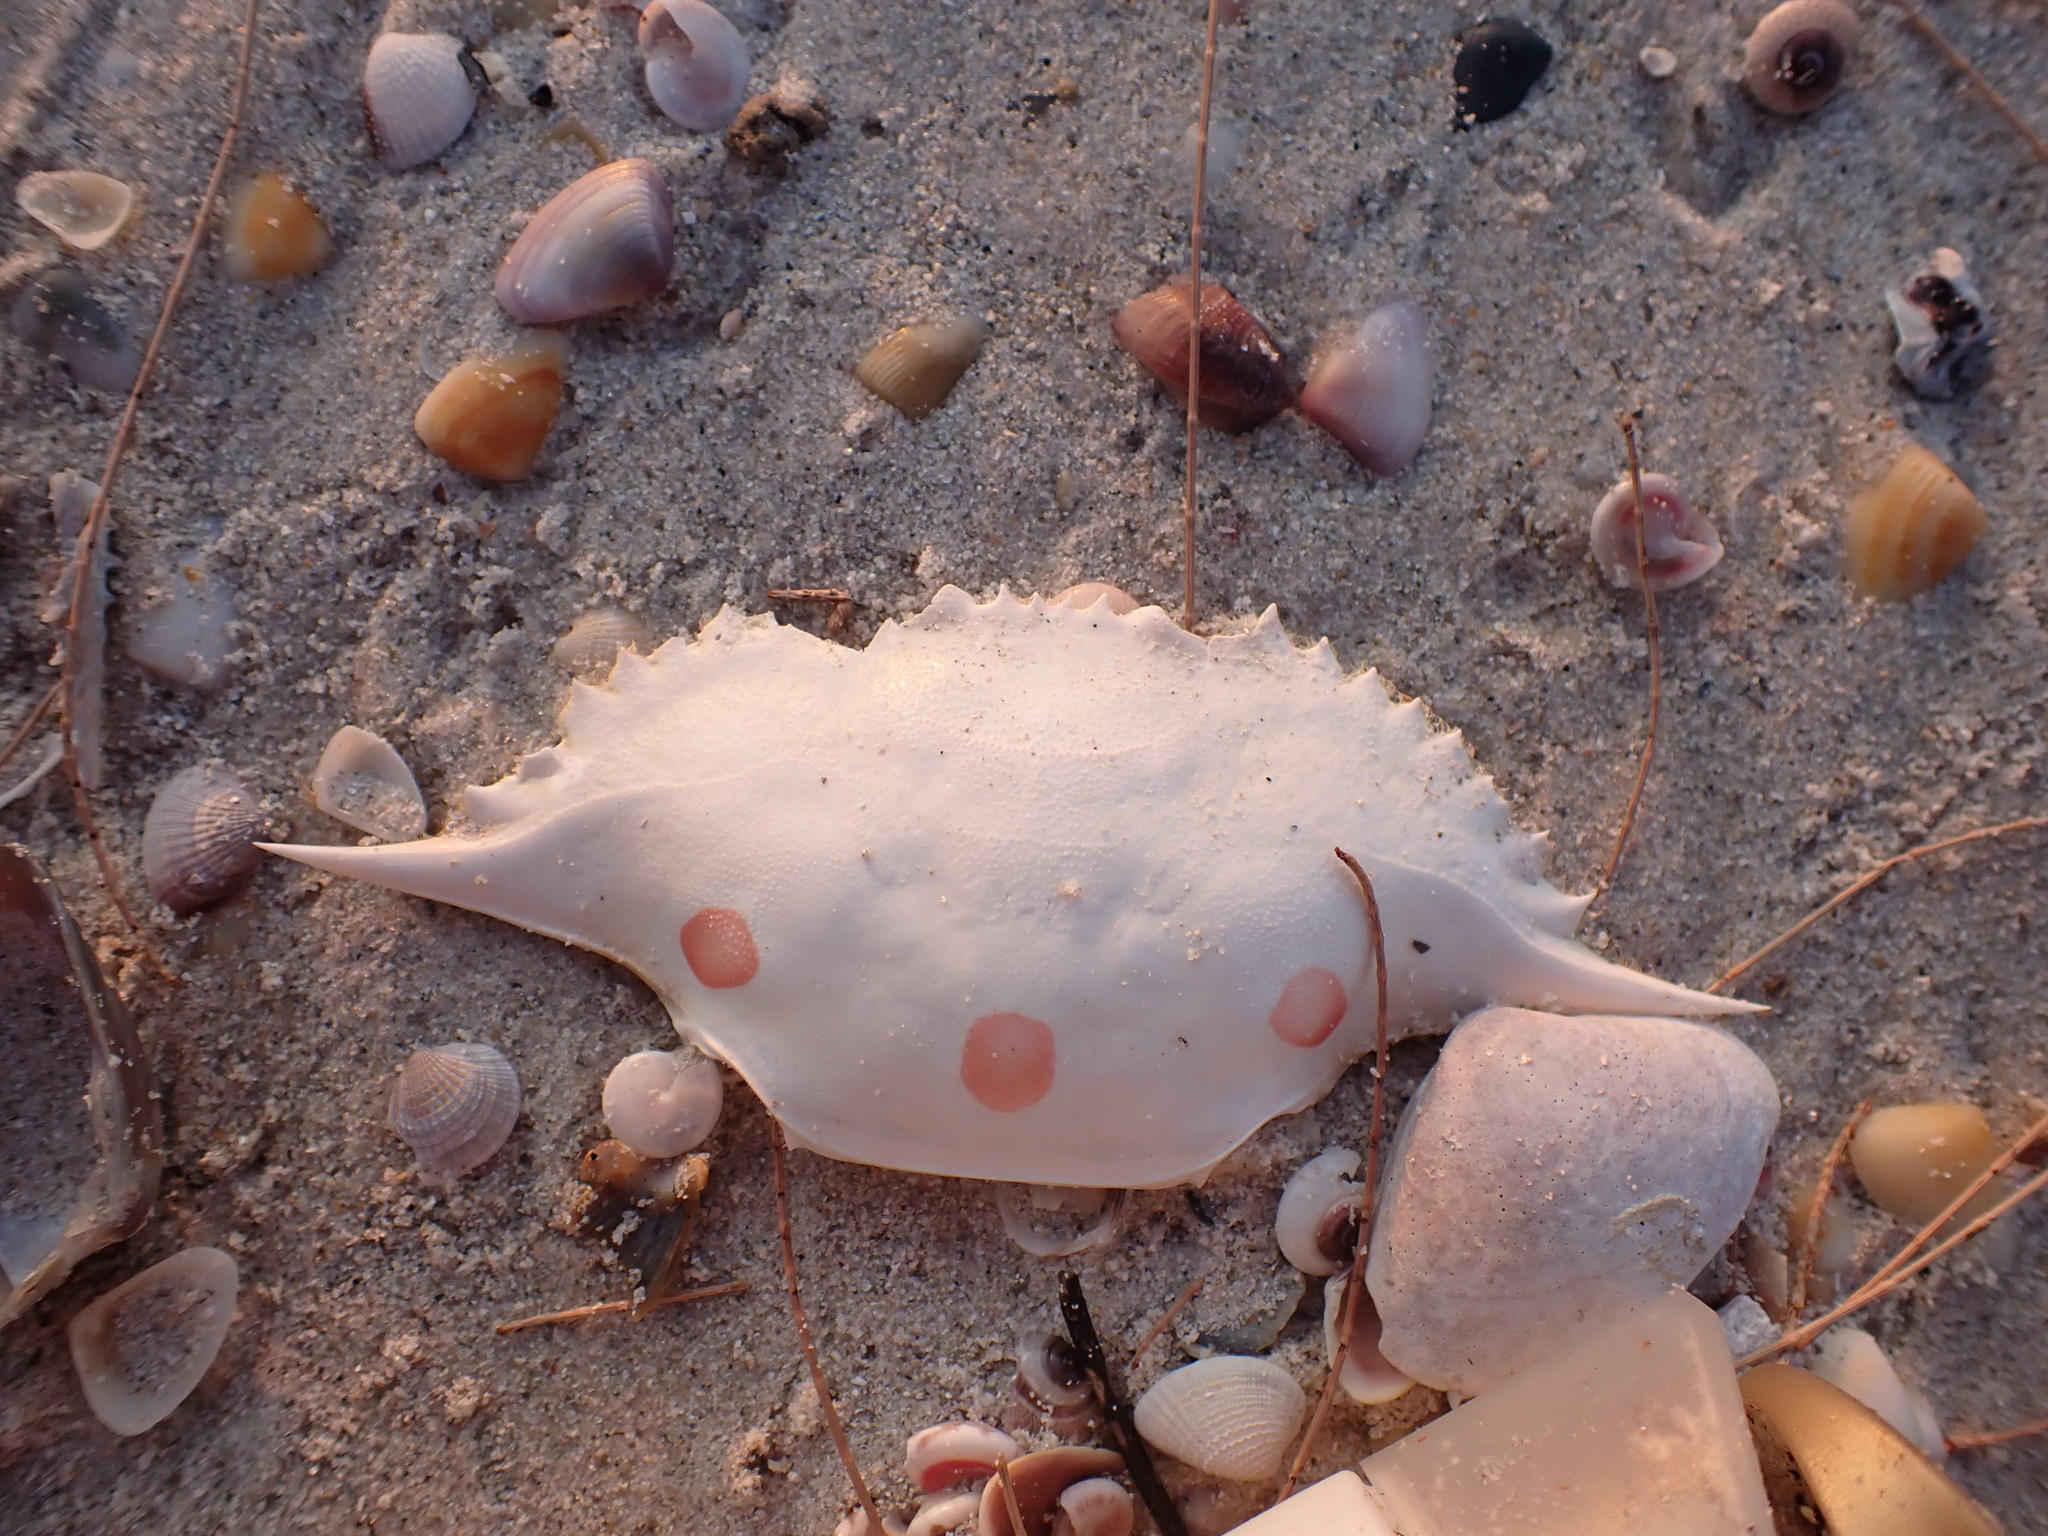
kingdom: Animalia
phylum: Arthropoda
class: Malacostraca
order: Decapoda
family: Portunidae
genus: Portunus
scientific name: Portunus sanguinolentus
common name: Blood-spotted swimming crab
